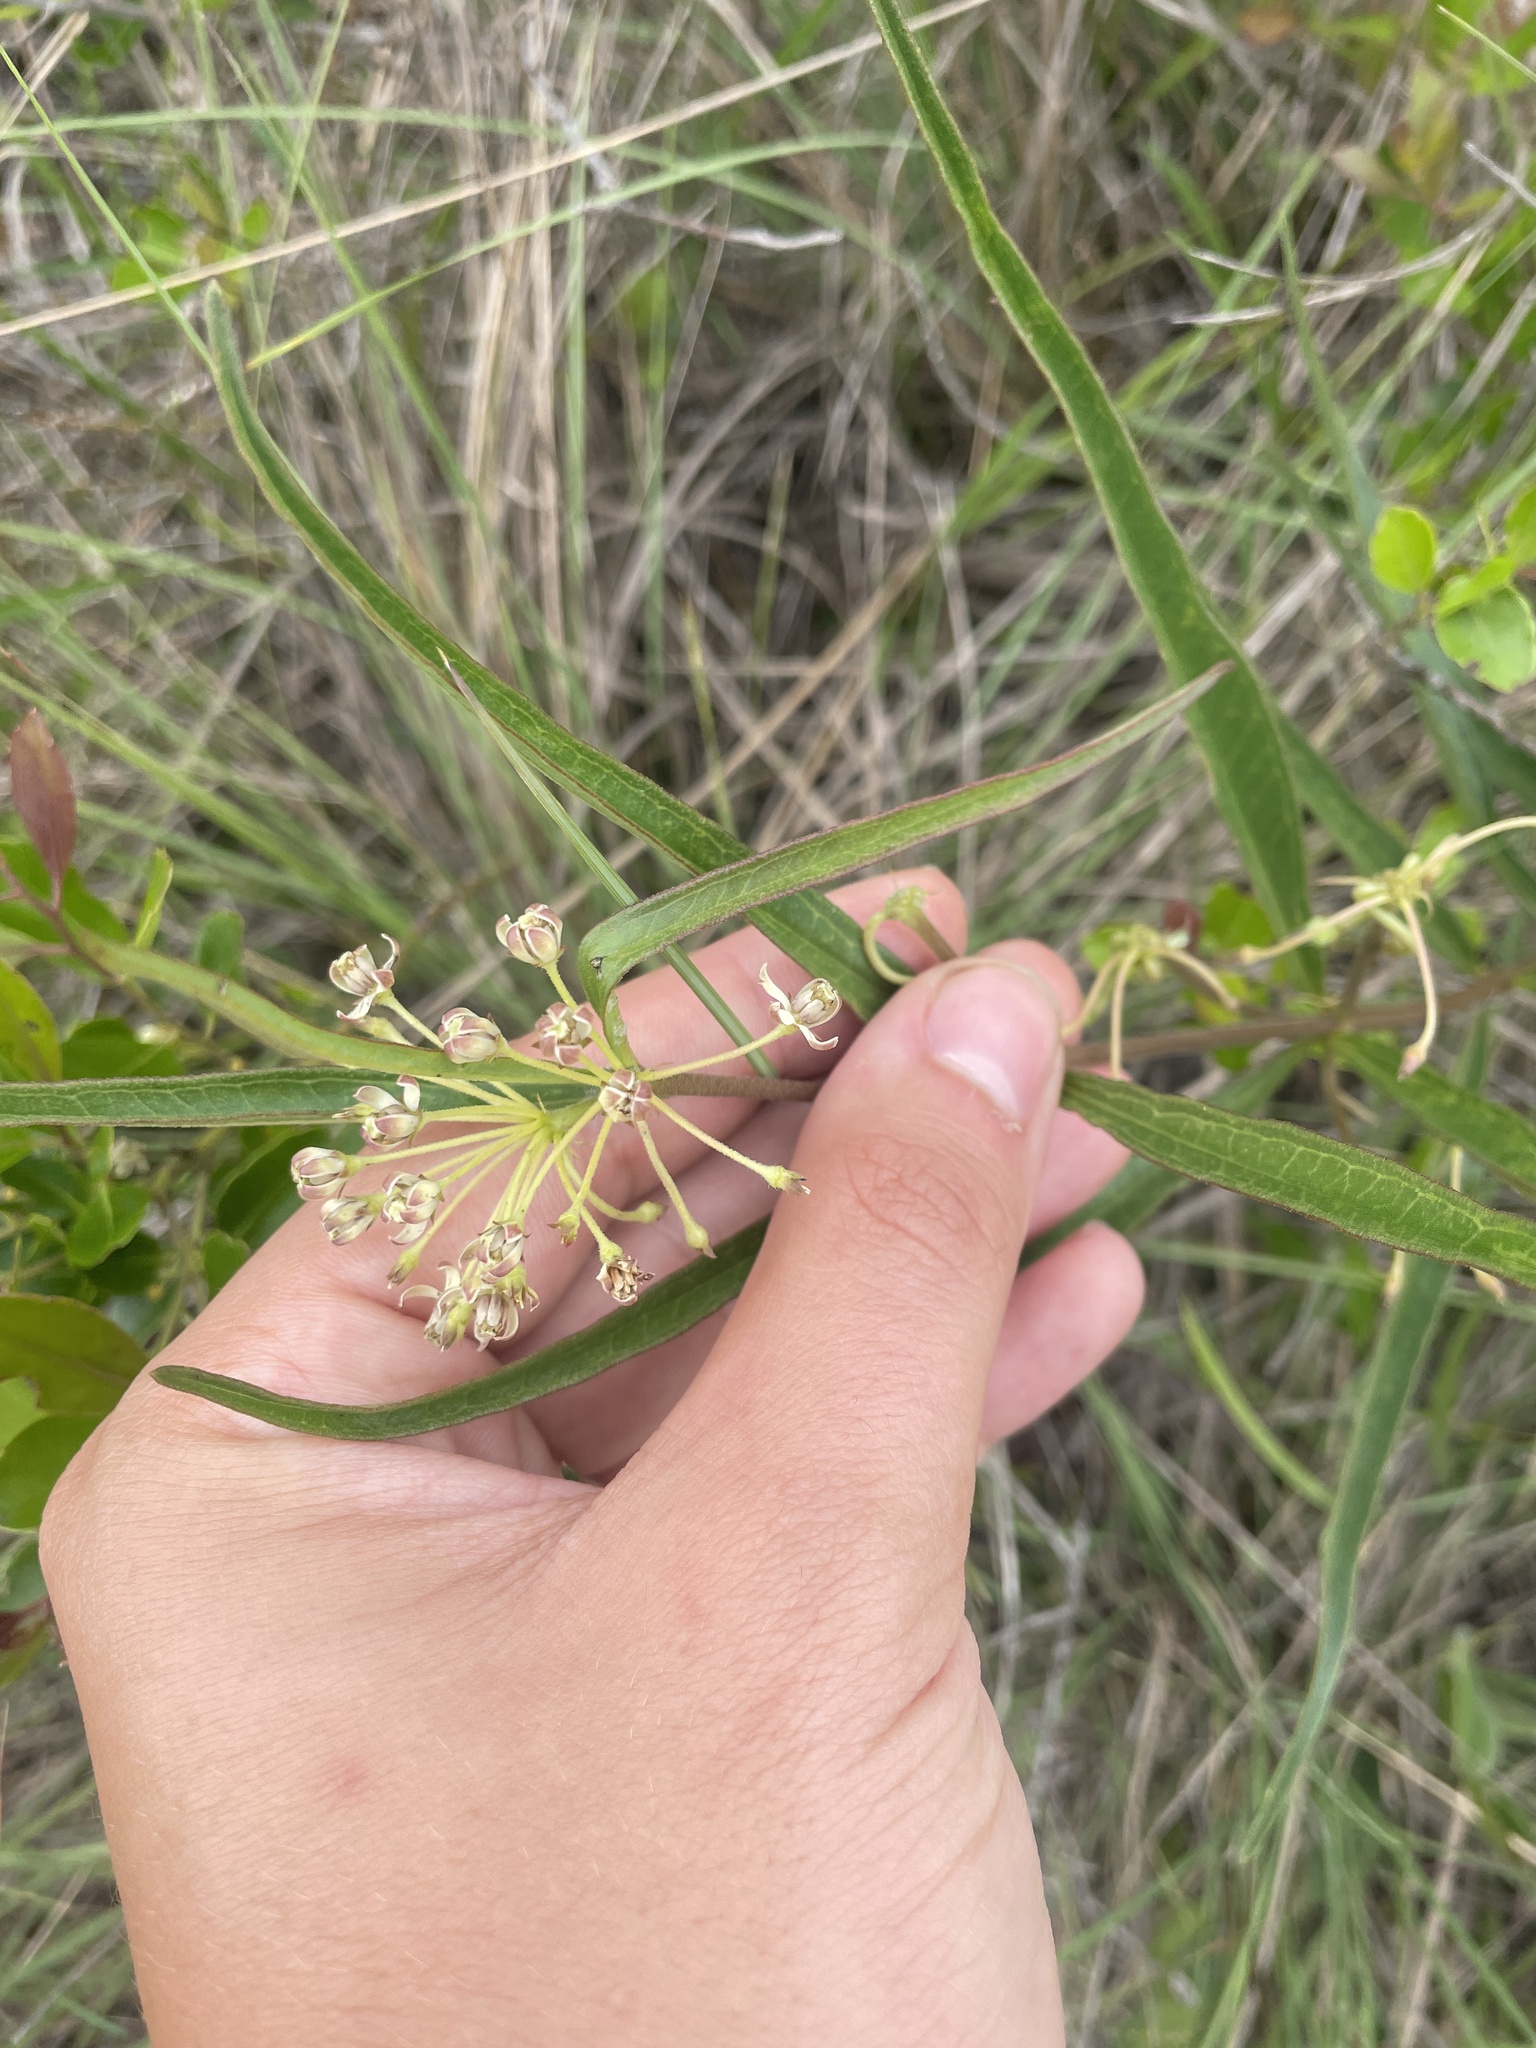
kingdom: Plantae
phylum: Tracheophyta
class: Magnoliopsida
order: Gentianales
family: Apocynaceae
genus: Asclepias
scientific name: Asclepias longifolia
